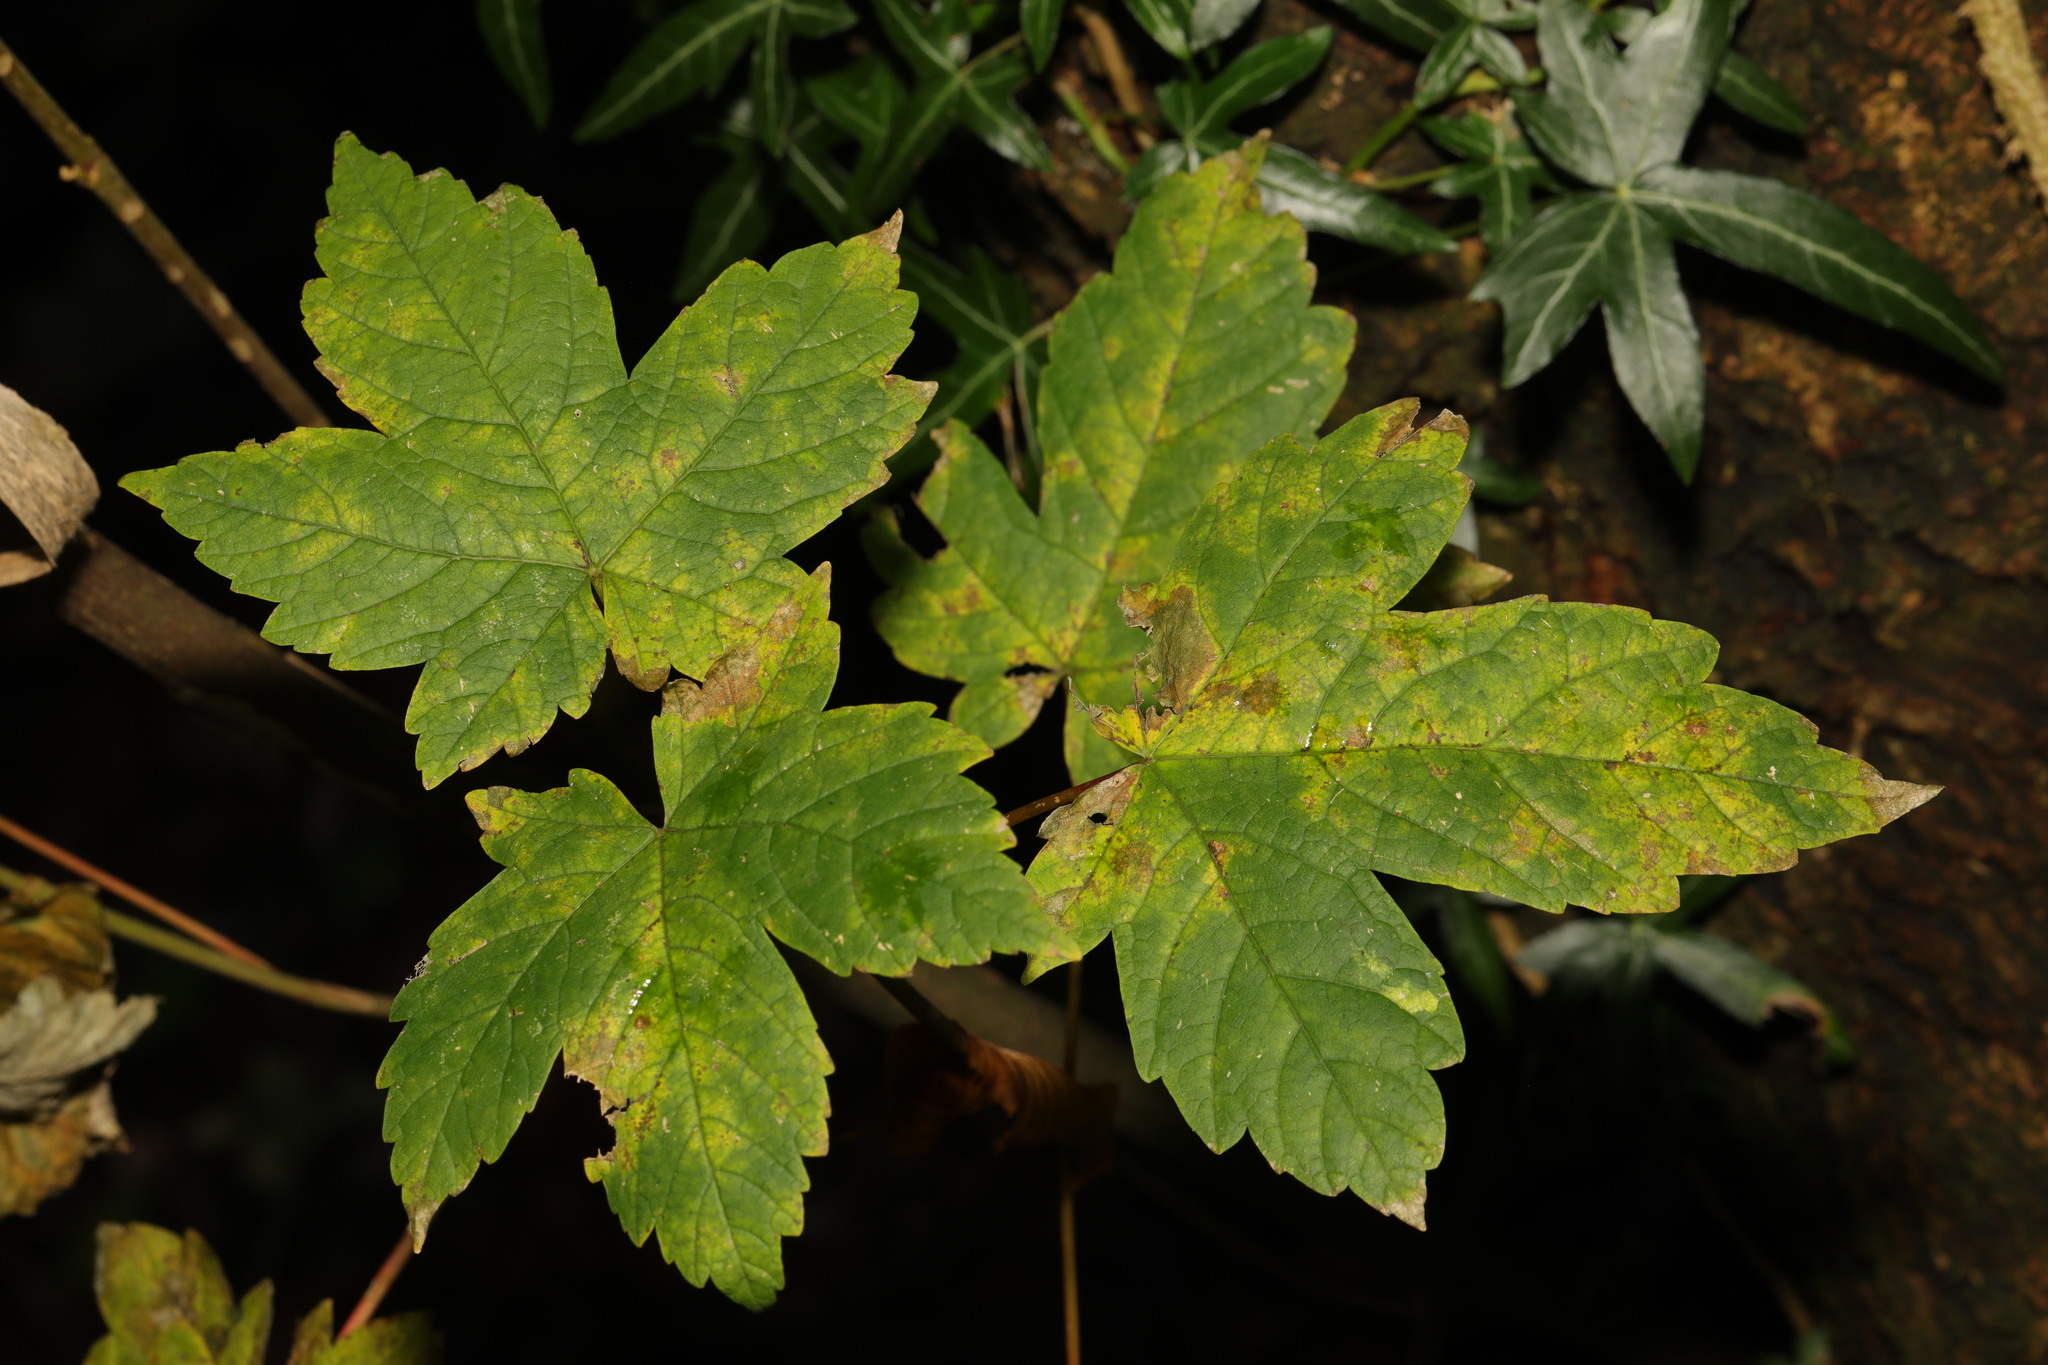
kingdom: Plantae
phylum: Tracheophyta
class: Magnoliopsida
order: Sapindales
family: Sapindaceae
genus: Acer
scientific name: Acer pseudoplatanus
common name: Sycamore
